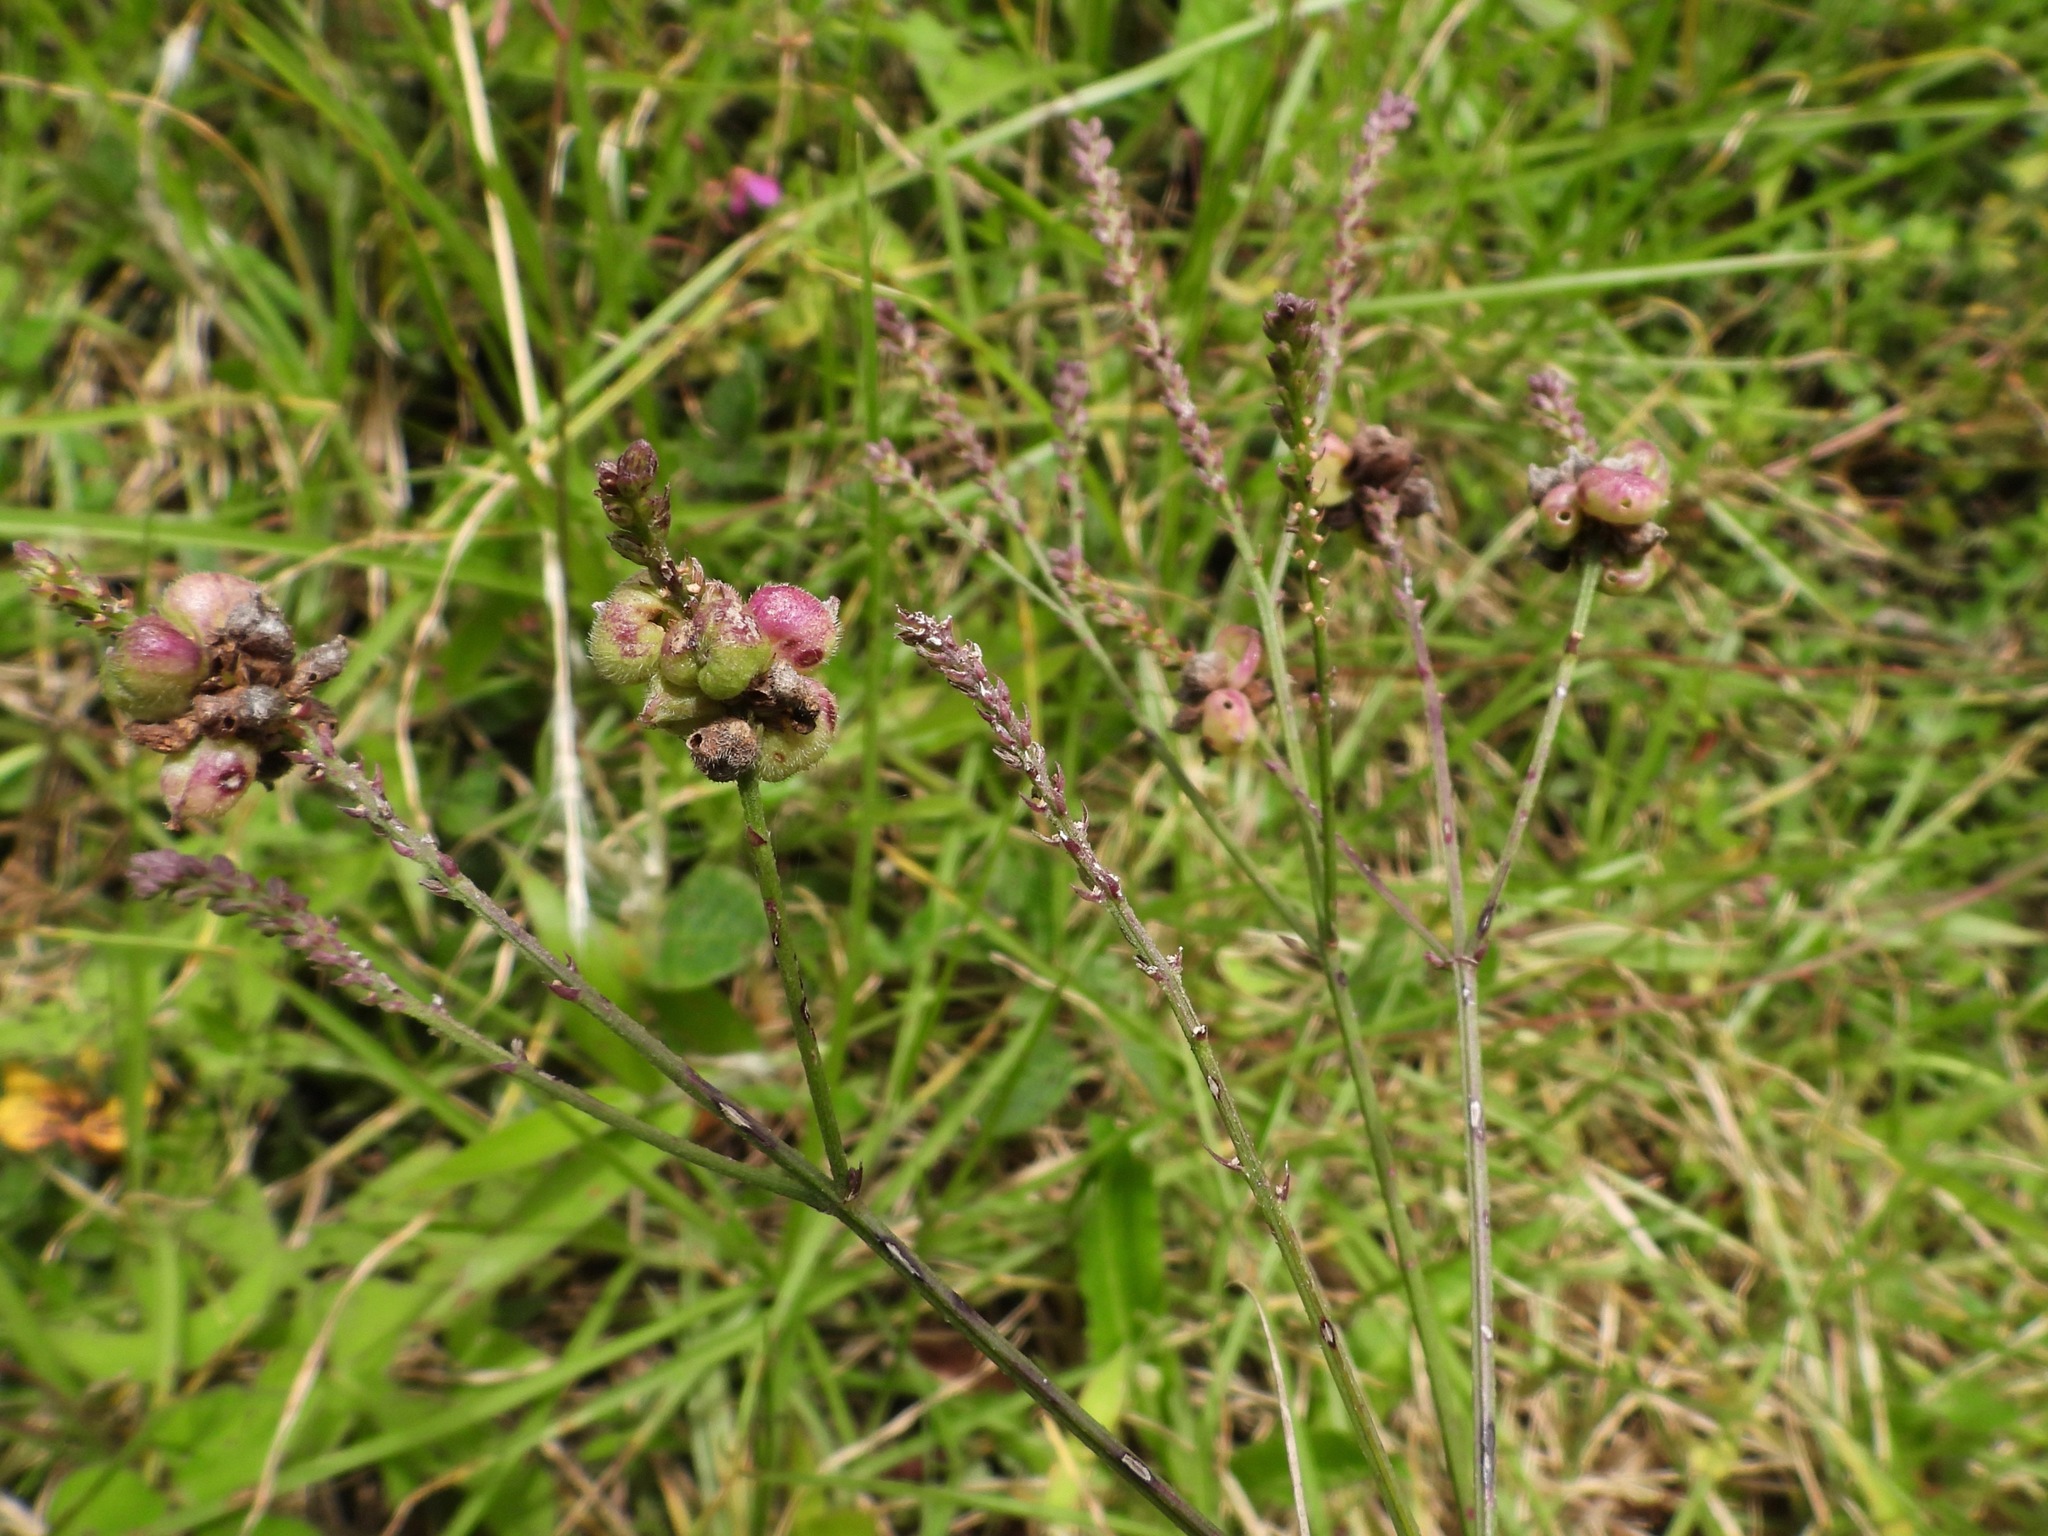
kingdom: Plantae
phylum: Tracheophyta
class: Magnoliopsida
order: Lamiales
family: Verbenaceae
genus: Verbena
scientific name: Verbena litoralis
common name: Seashore vervain
